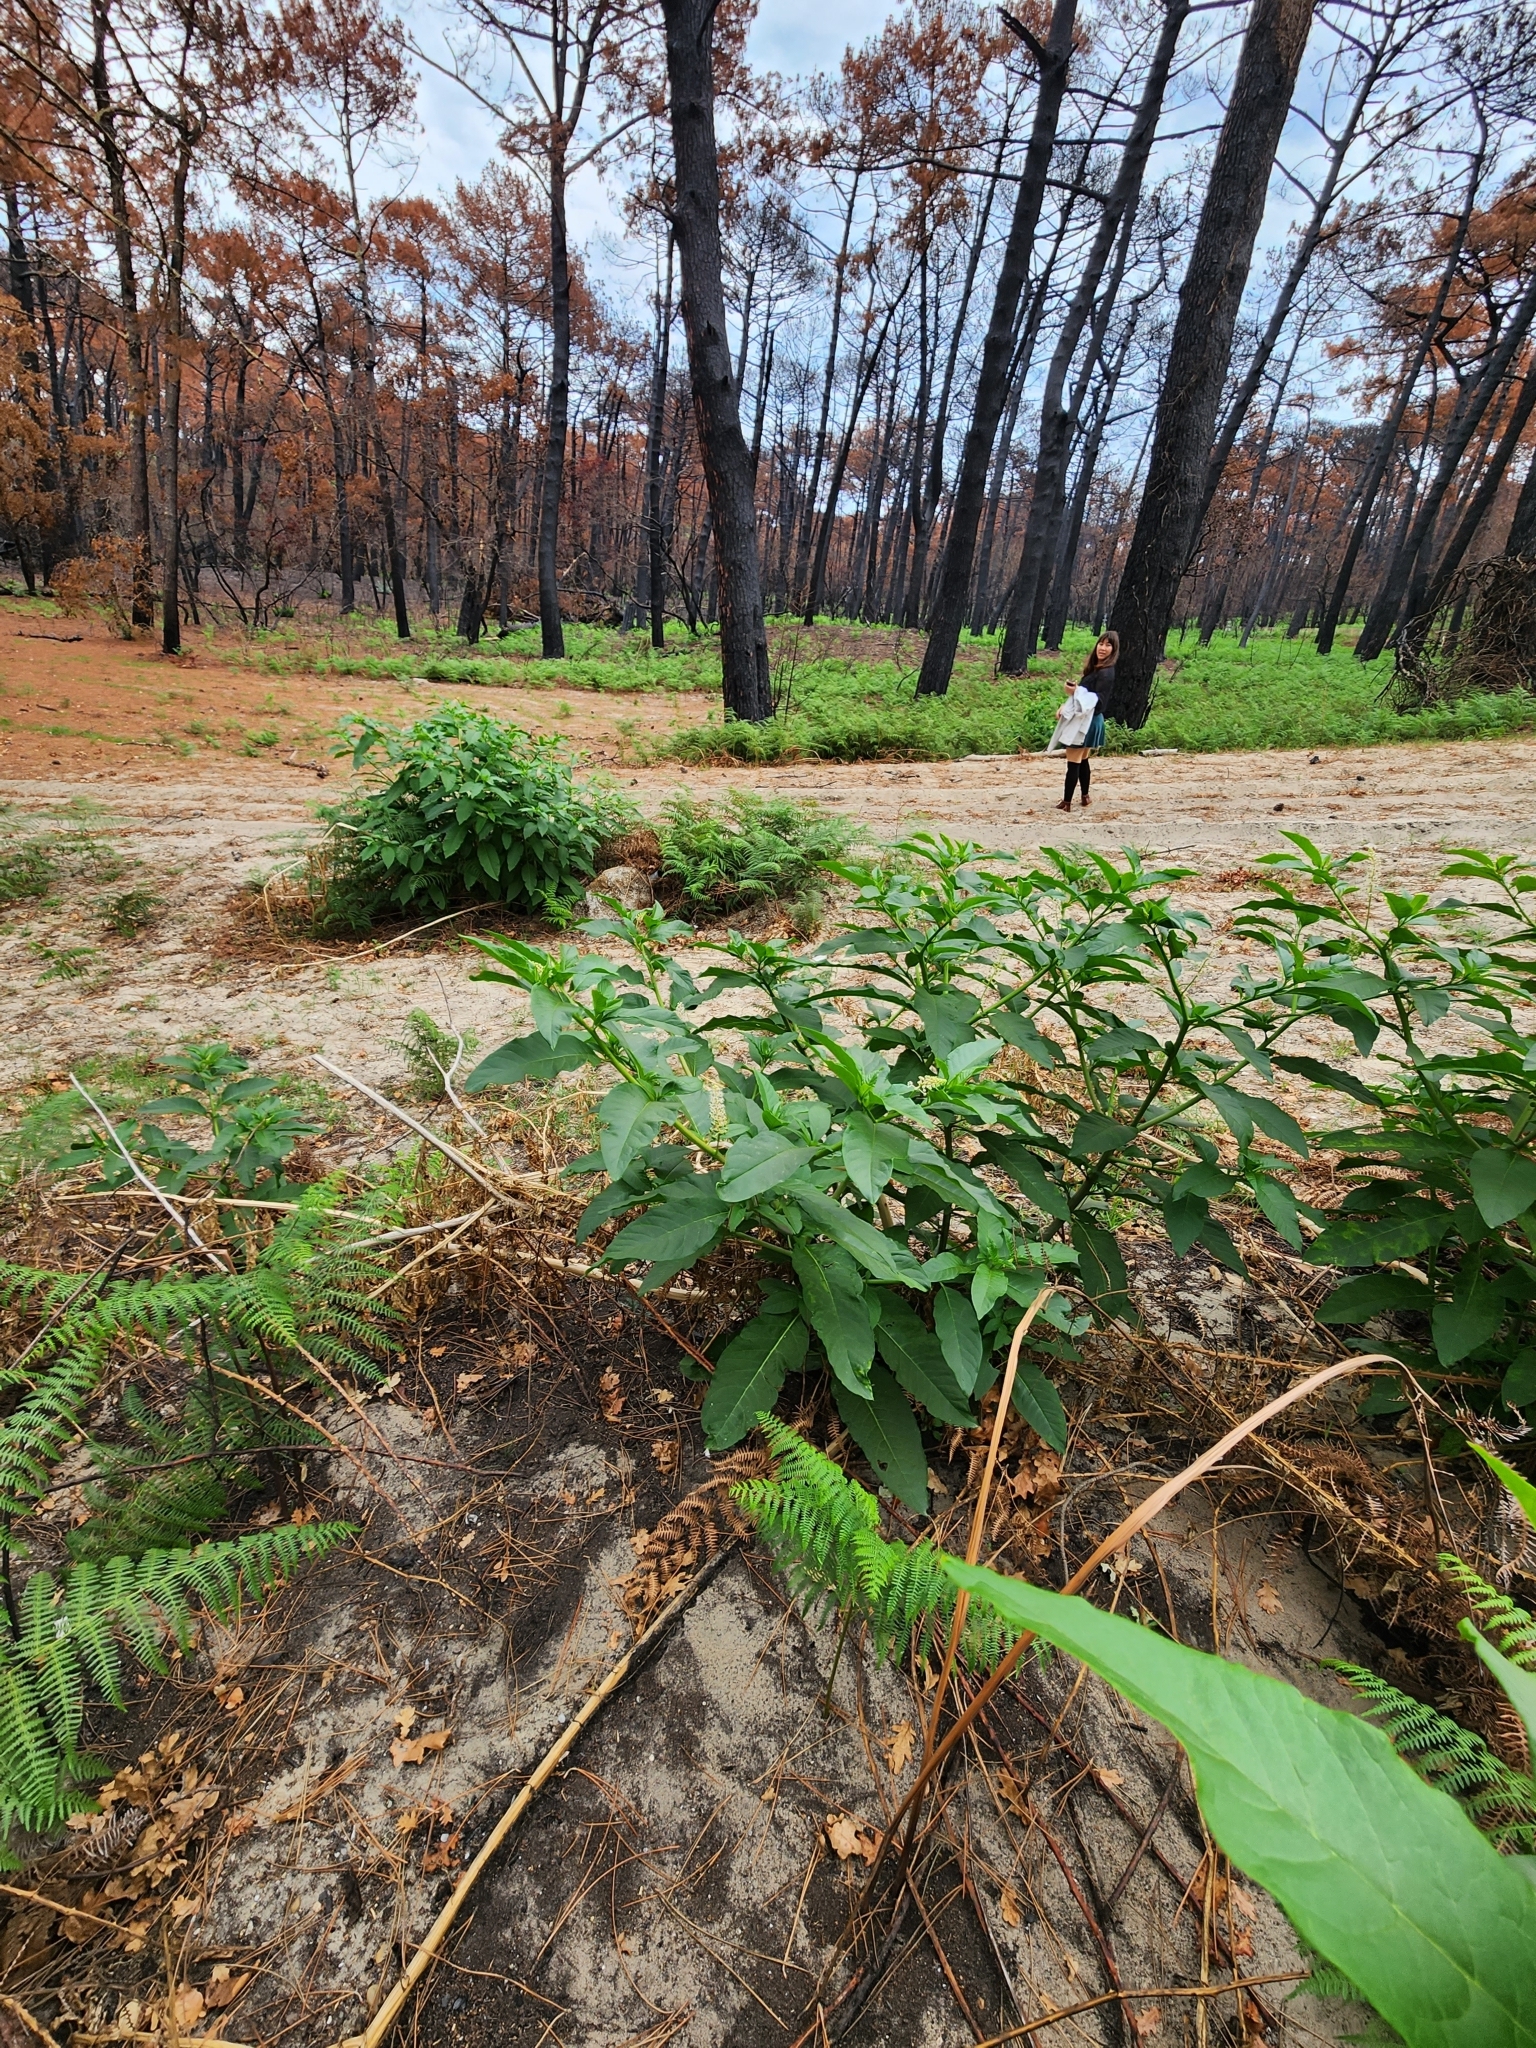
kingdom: Plantae
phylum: Tracheophyta
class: Magnoliopsida
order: Caryophyllales
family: Phytolaccaceae
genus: Phytolacca
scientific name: Phytolacca americana
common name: American pokeweed
